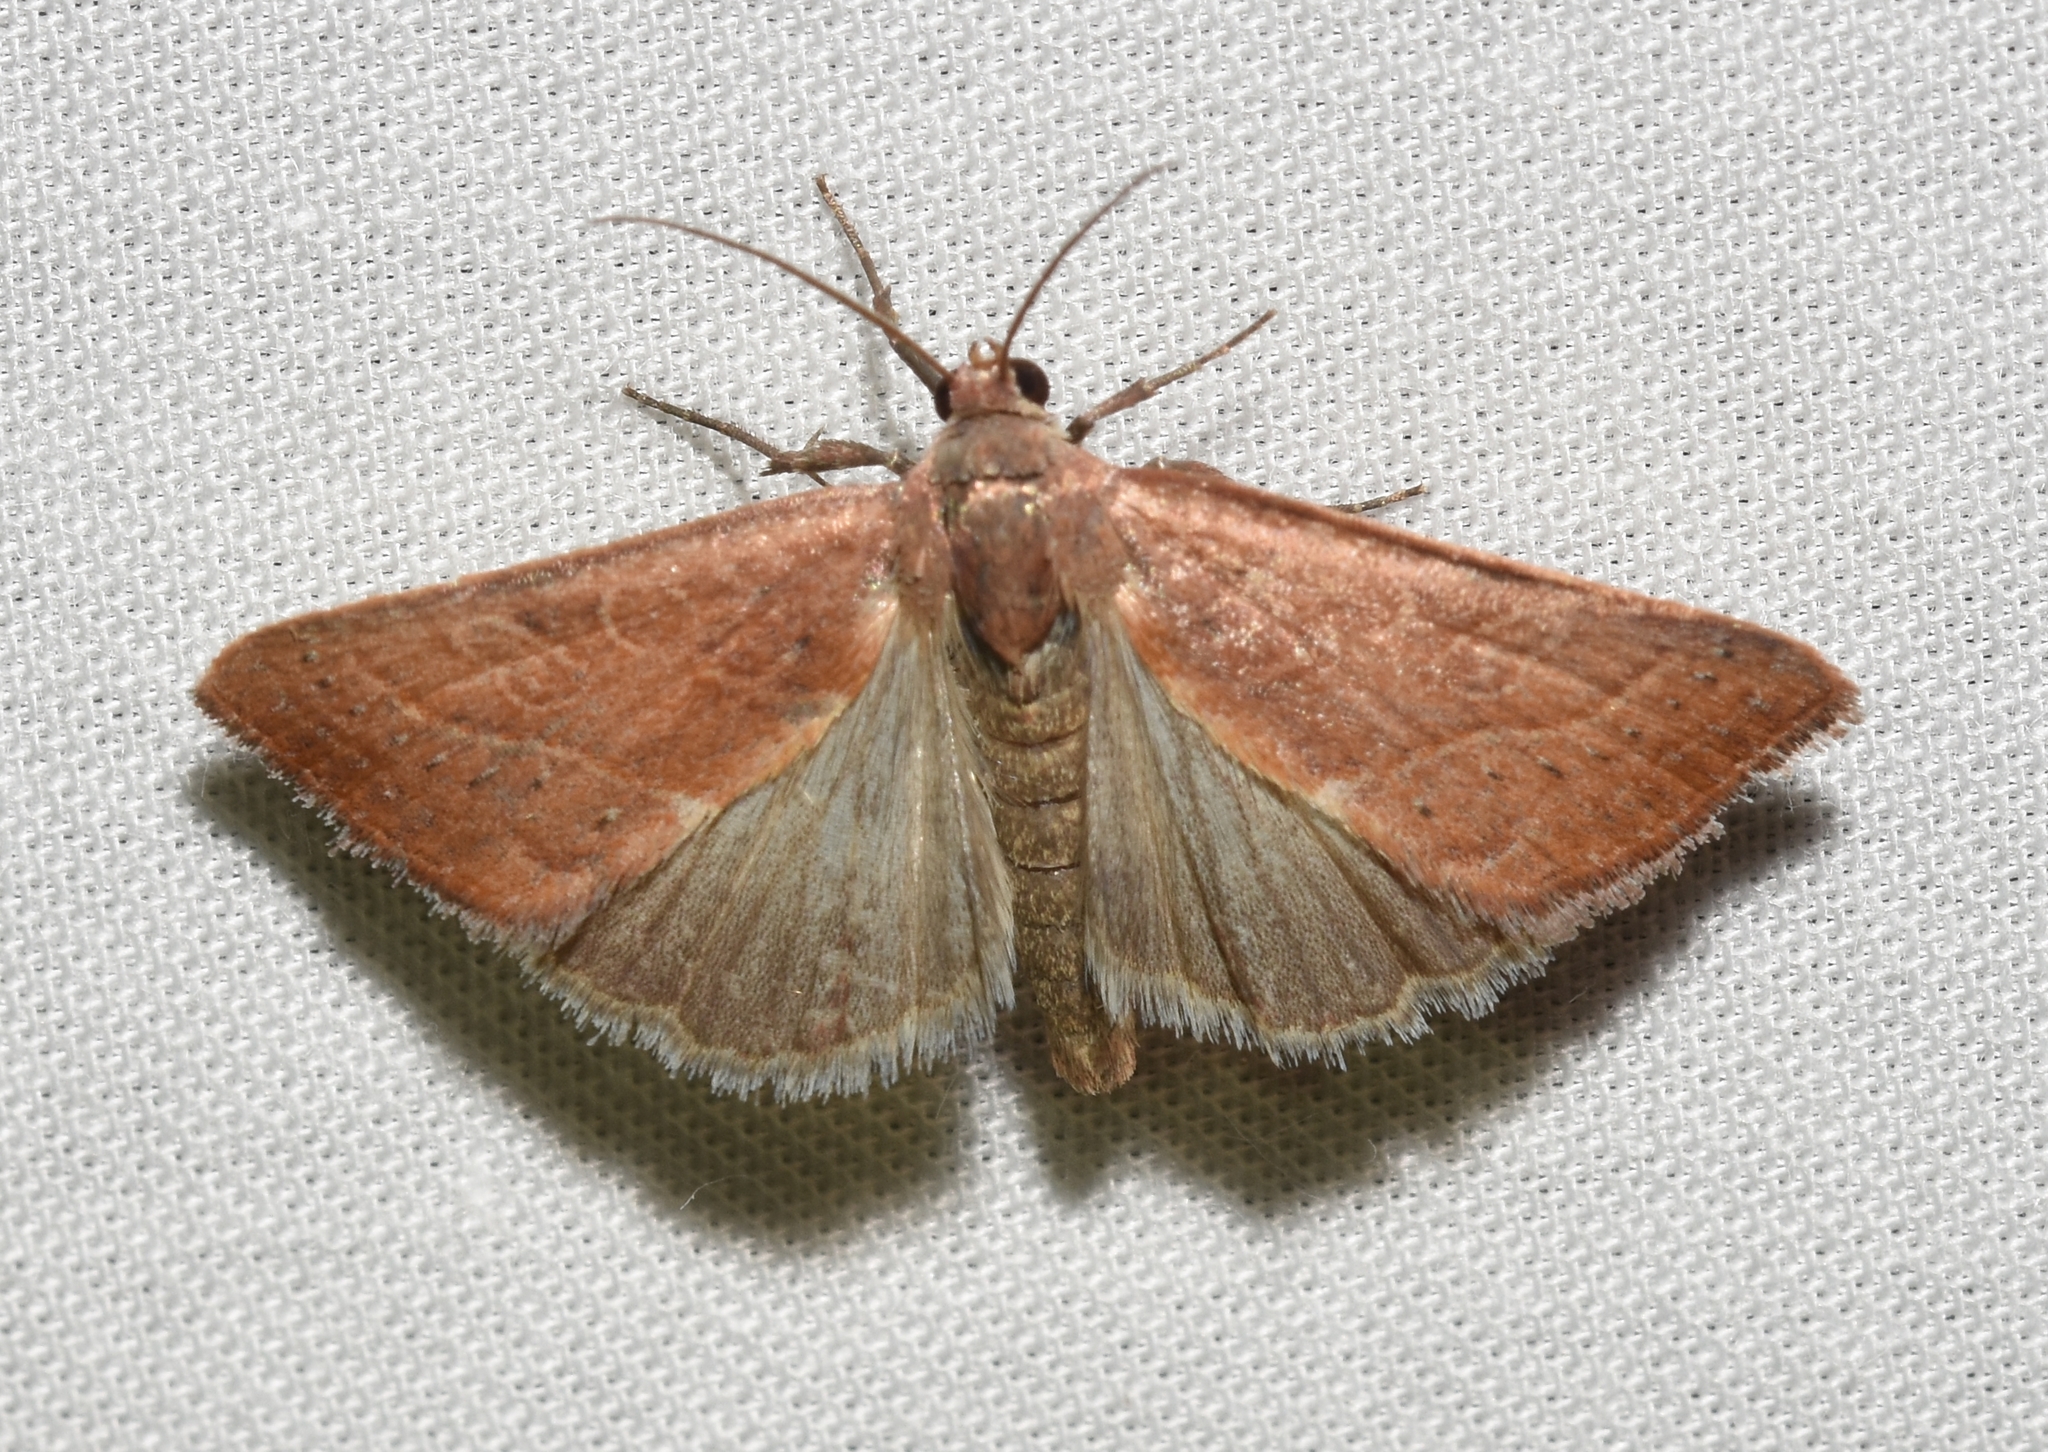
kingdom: Animalia
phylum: Arthropoda
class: Insecta
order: Lepidoptera
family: Noctuidae
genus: Galgula
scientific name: Galgula partita
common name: Wedgeling
